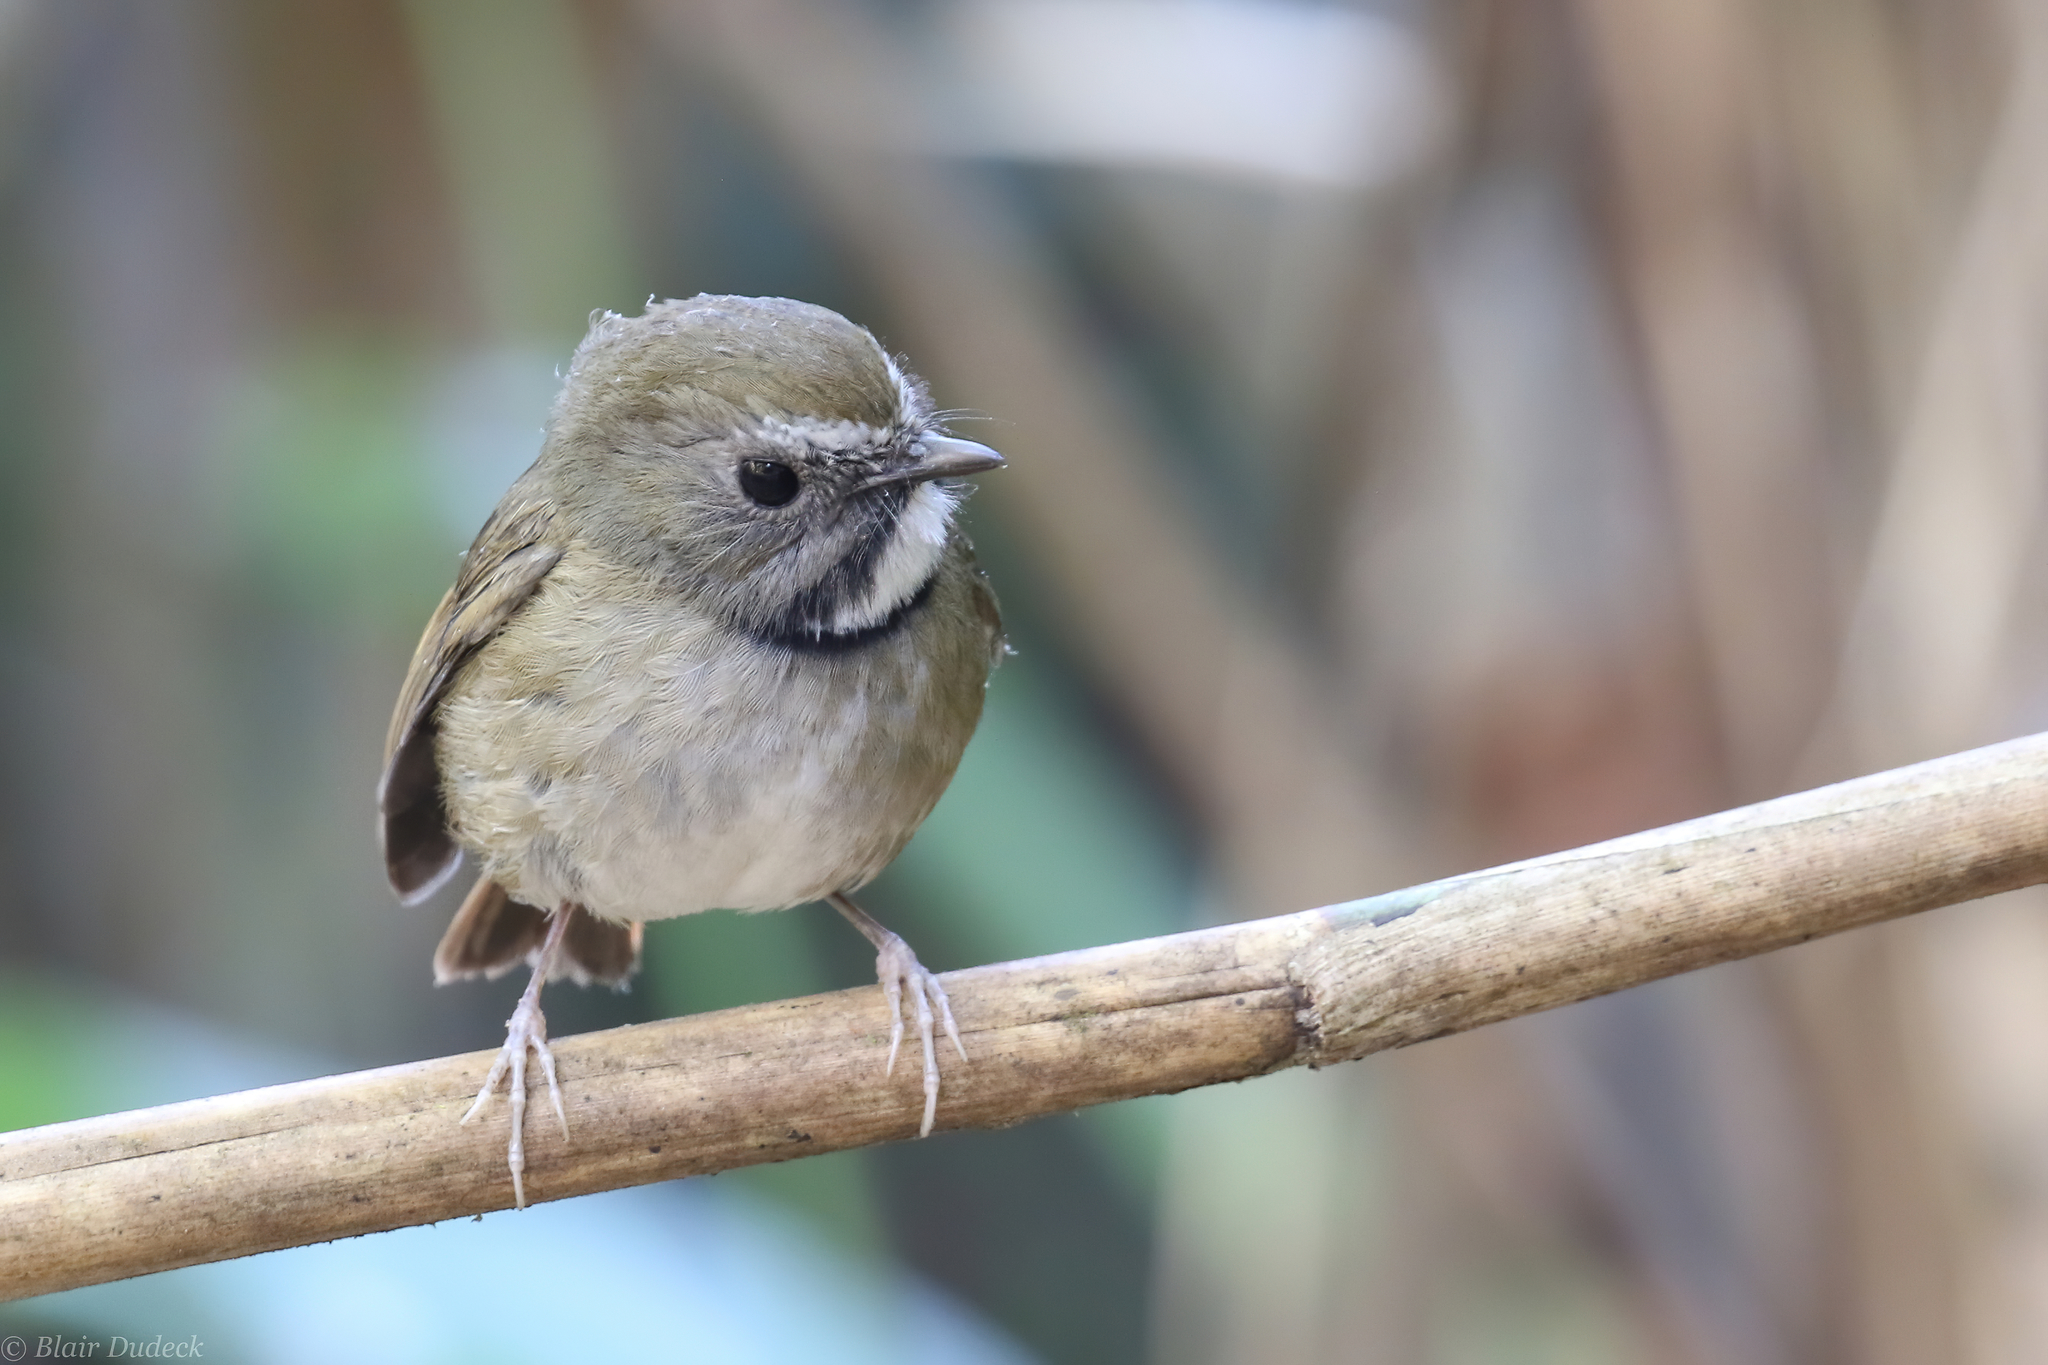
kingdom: Animalia
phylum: Chordata
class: Aves
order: Passeriformes
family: Muscicapidae
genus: Anthipes
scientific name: Anthipes monileger
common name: White-gorgeted flycatcher
